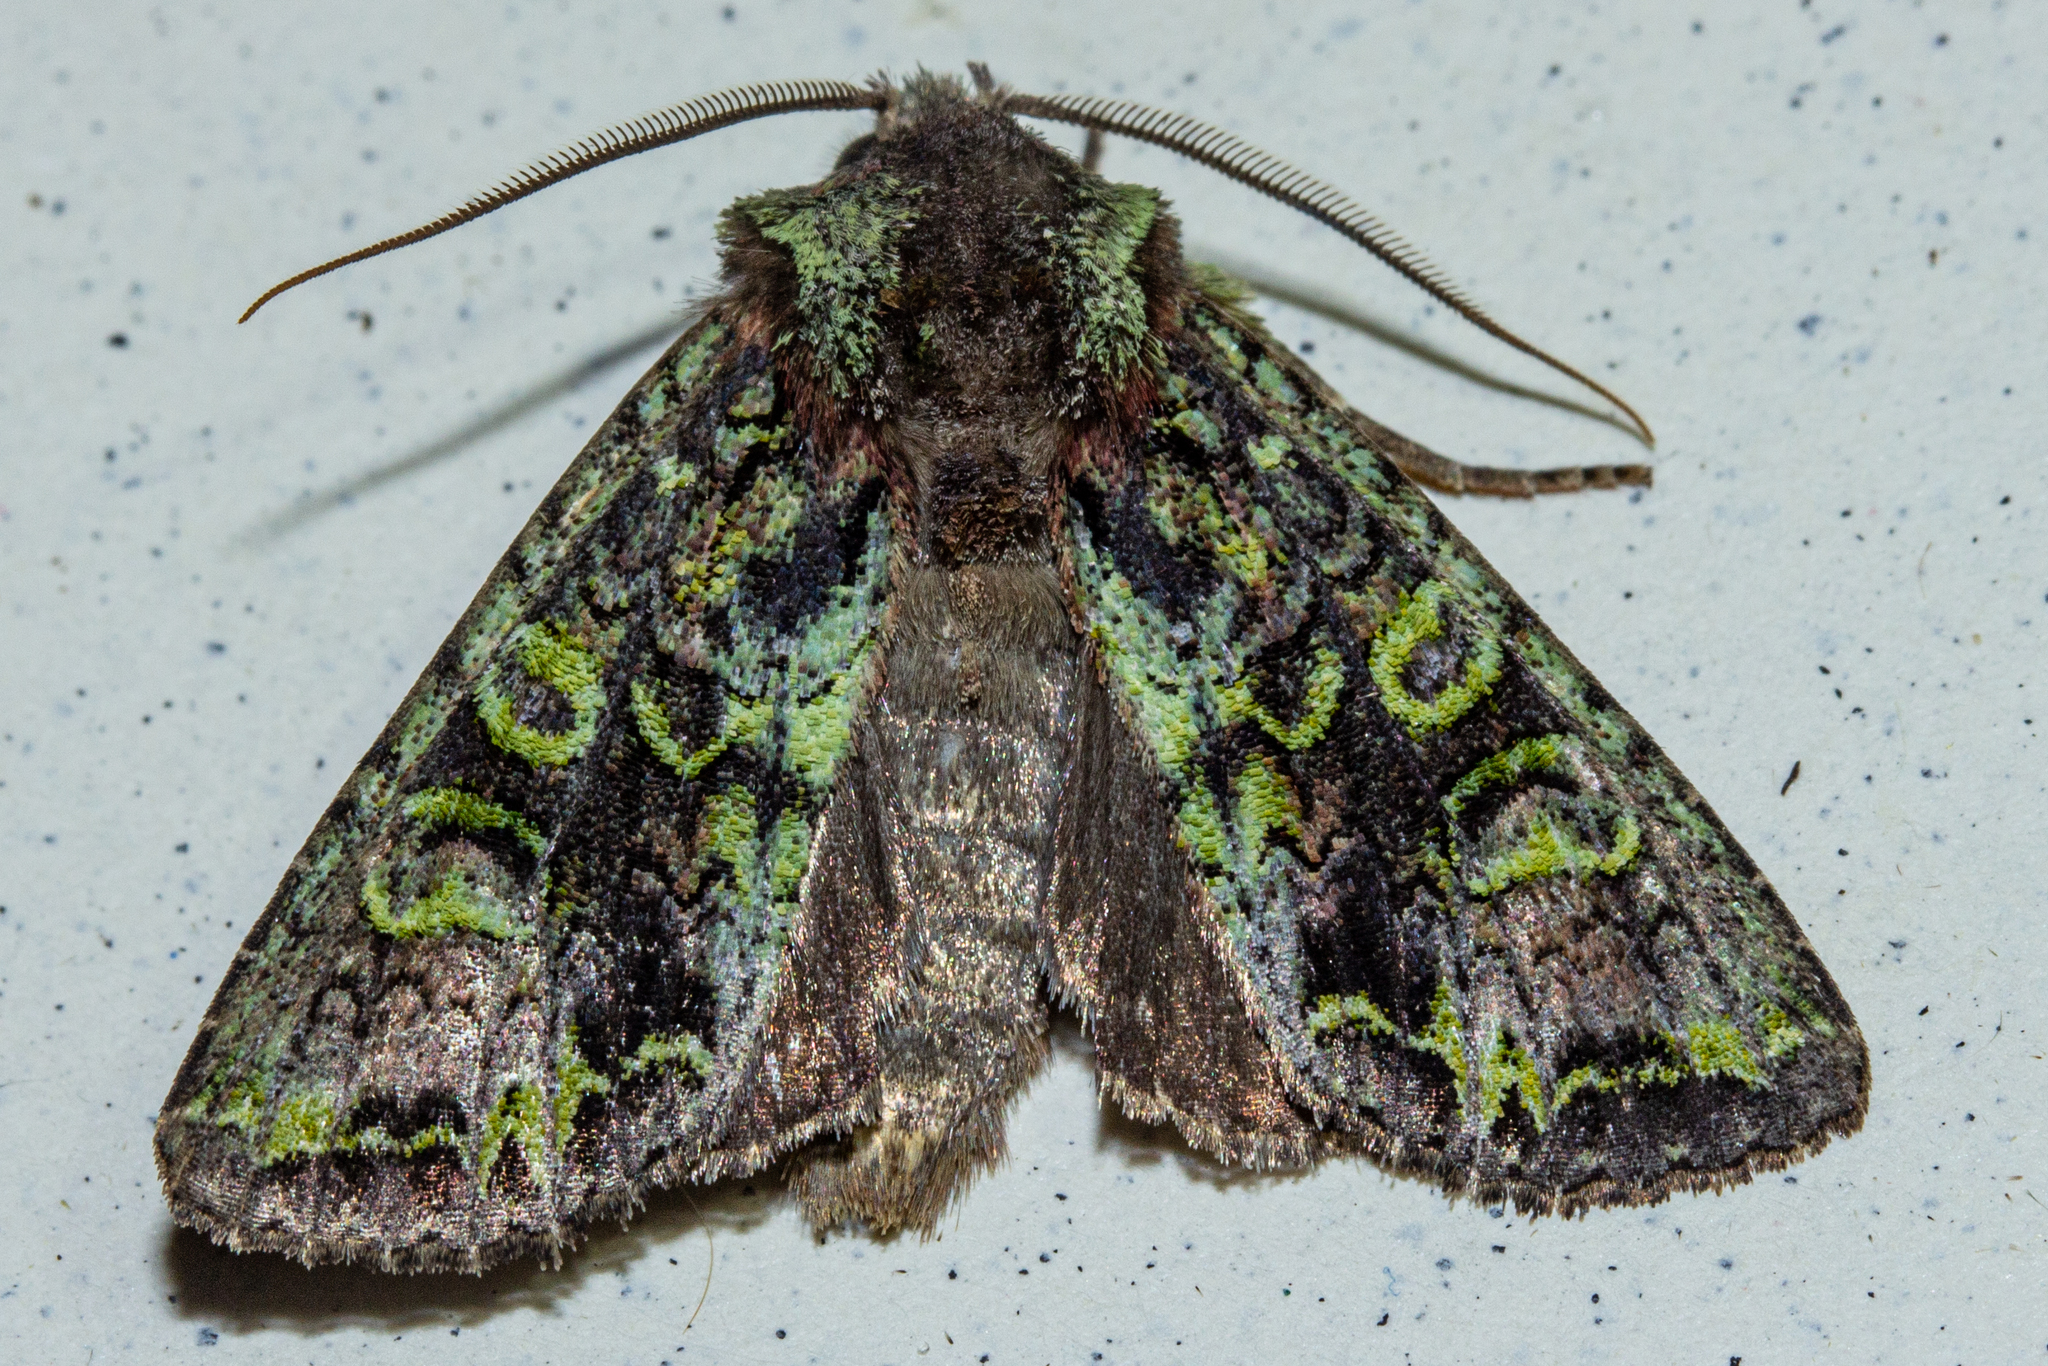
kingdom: Animalia
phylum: Arthropoda
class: Insecta
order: Lepidoptera
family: Noctuidae
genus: Ichneutica
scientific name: Ichneutica
